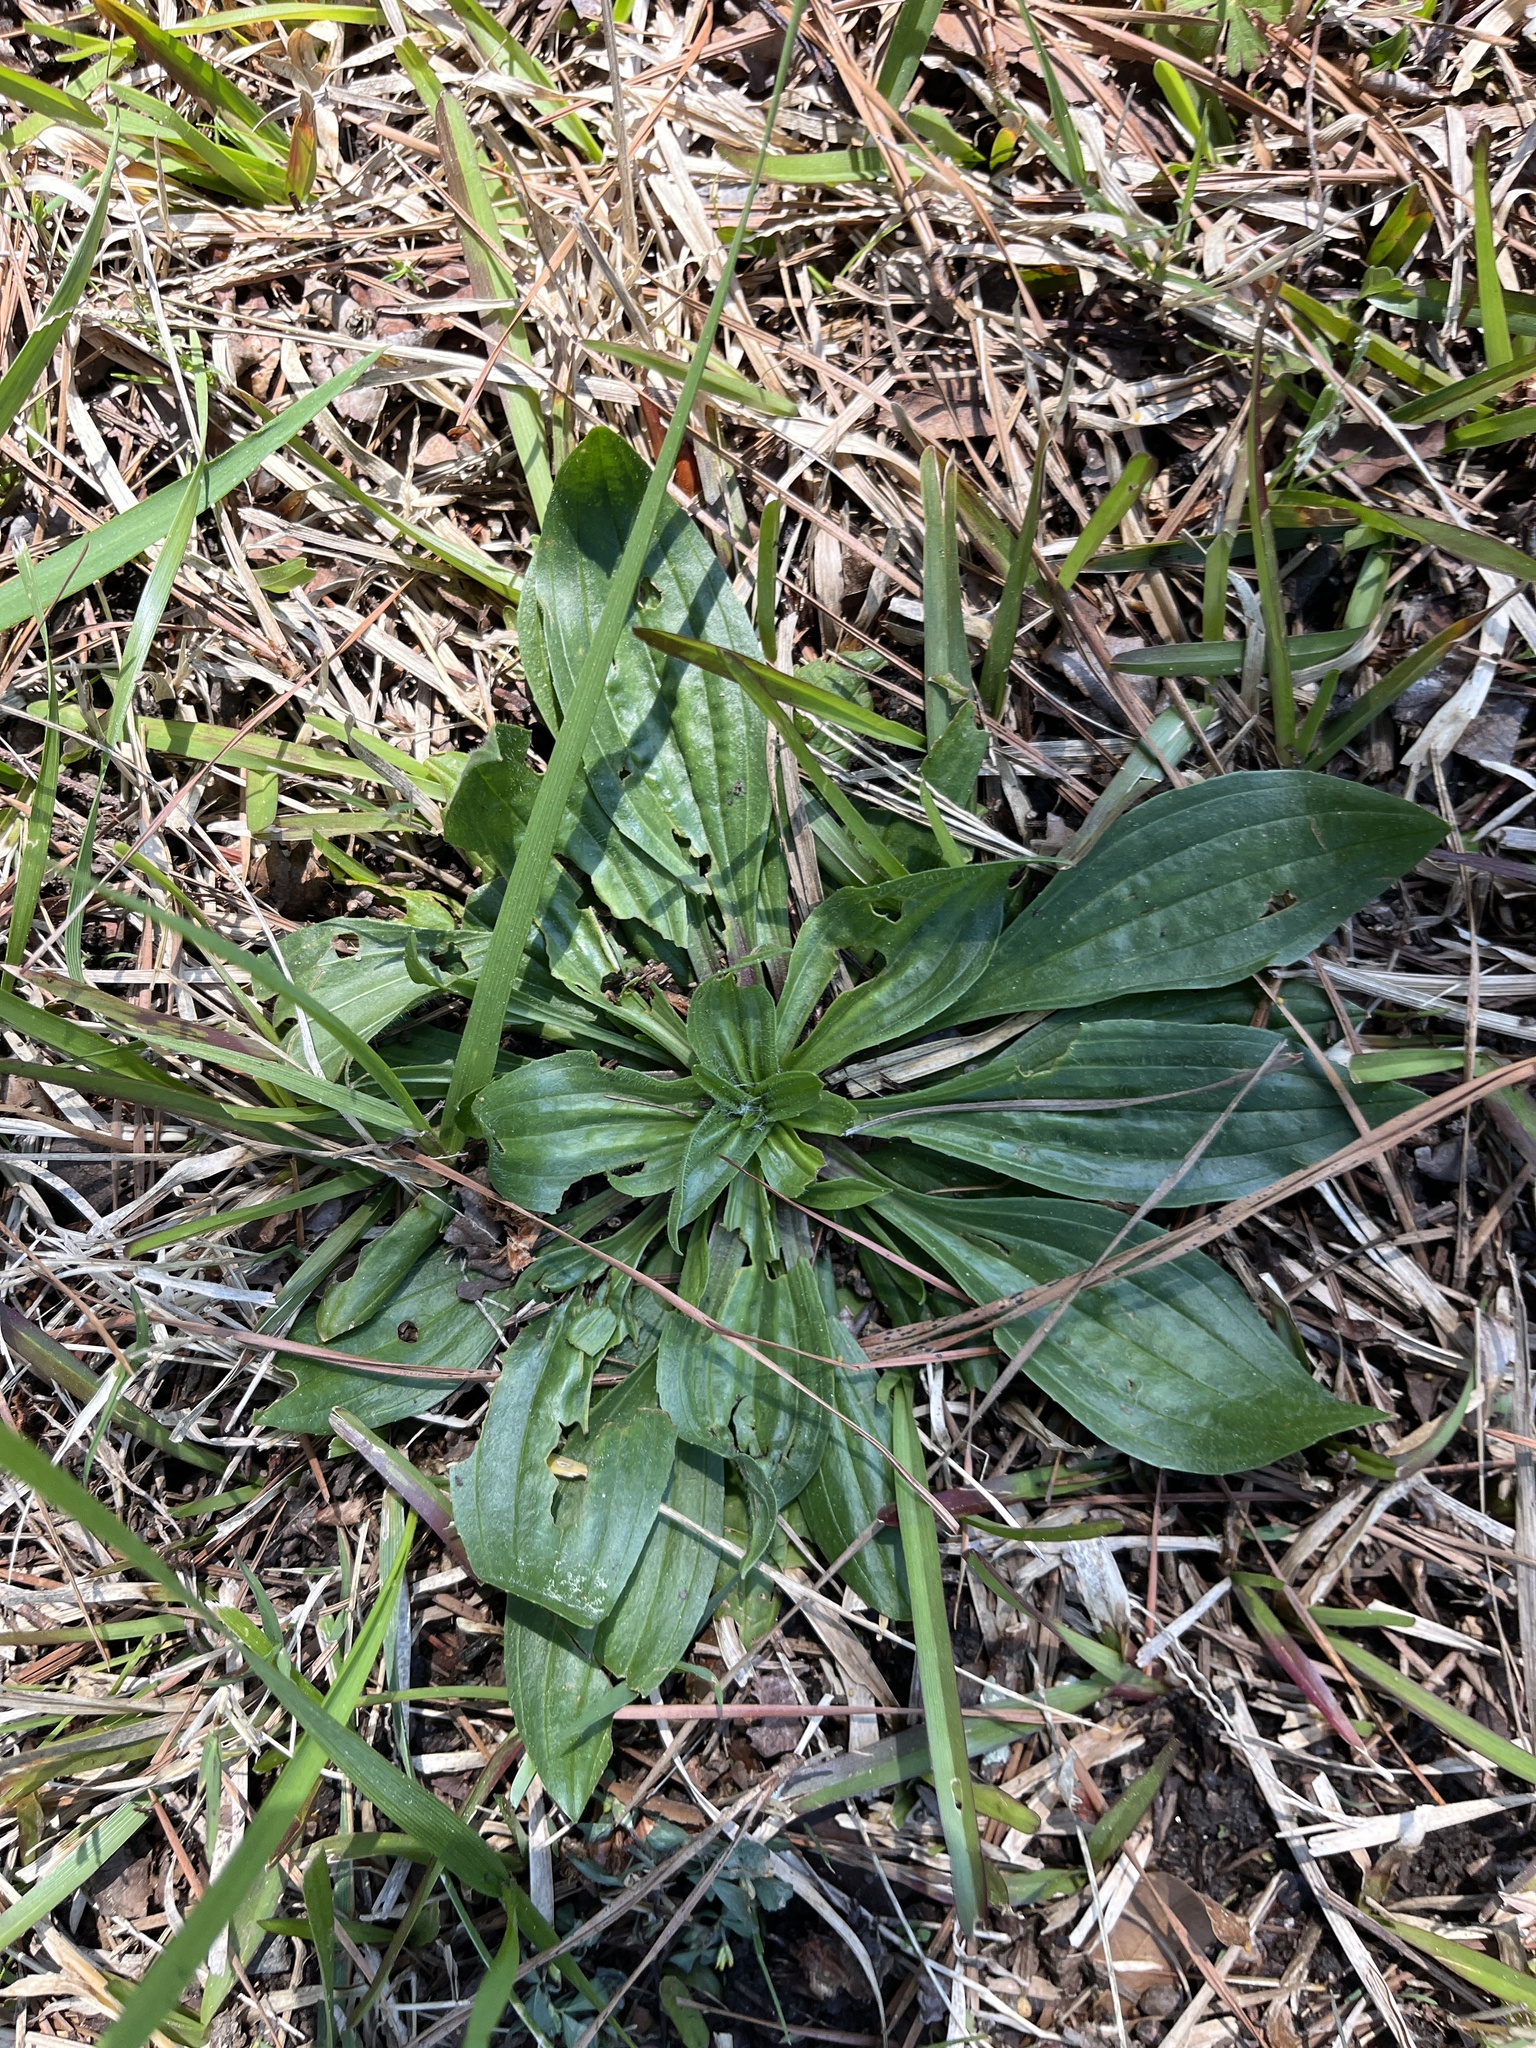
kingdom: Plantae
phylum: Tracheophyta
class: Magnoliopsida
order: Lamiales
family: Plantaginaceae
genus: Plantago
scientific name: Plantago lanceolata
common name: Ribwort plantain
